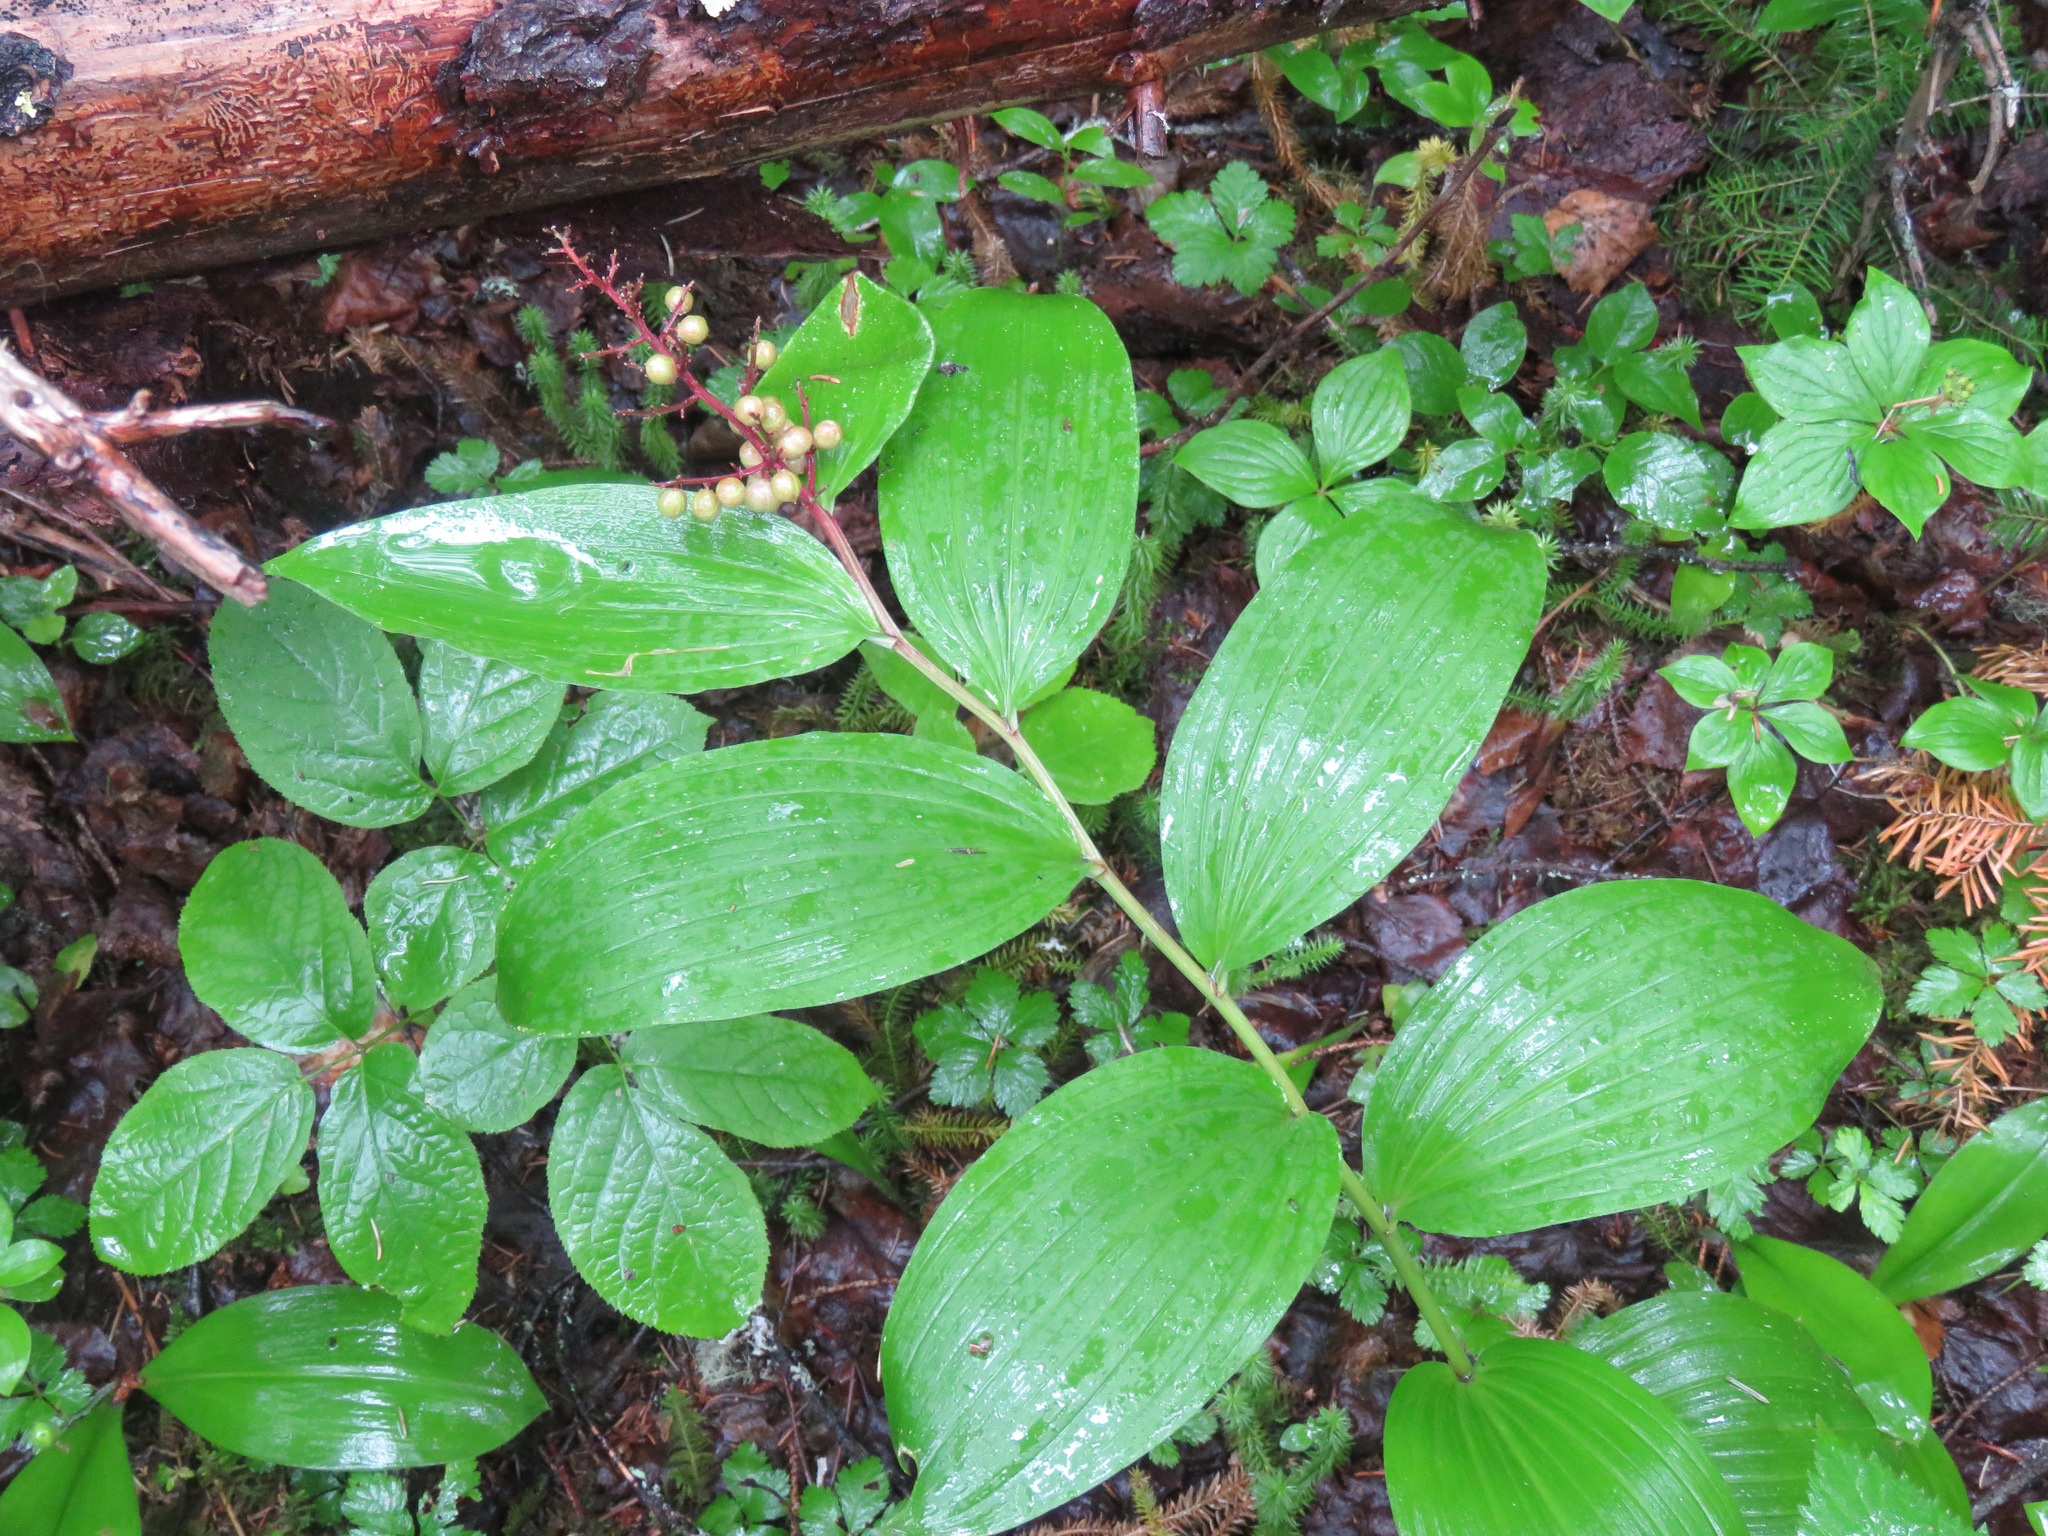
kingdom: Plantae
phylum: Tracheophyta
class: Liliopsida
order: Asparagales
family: Asparagaceae
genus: Maianthemum
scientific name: Maianthemum racemosum
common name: False spikenard
